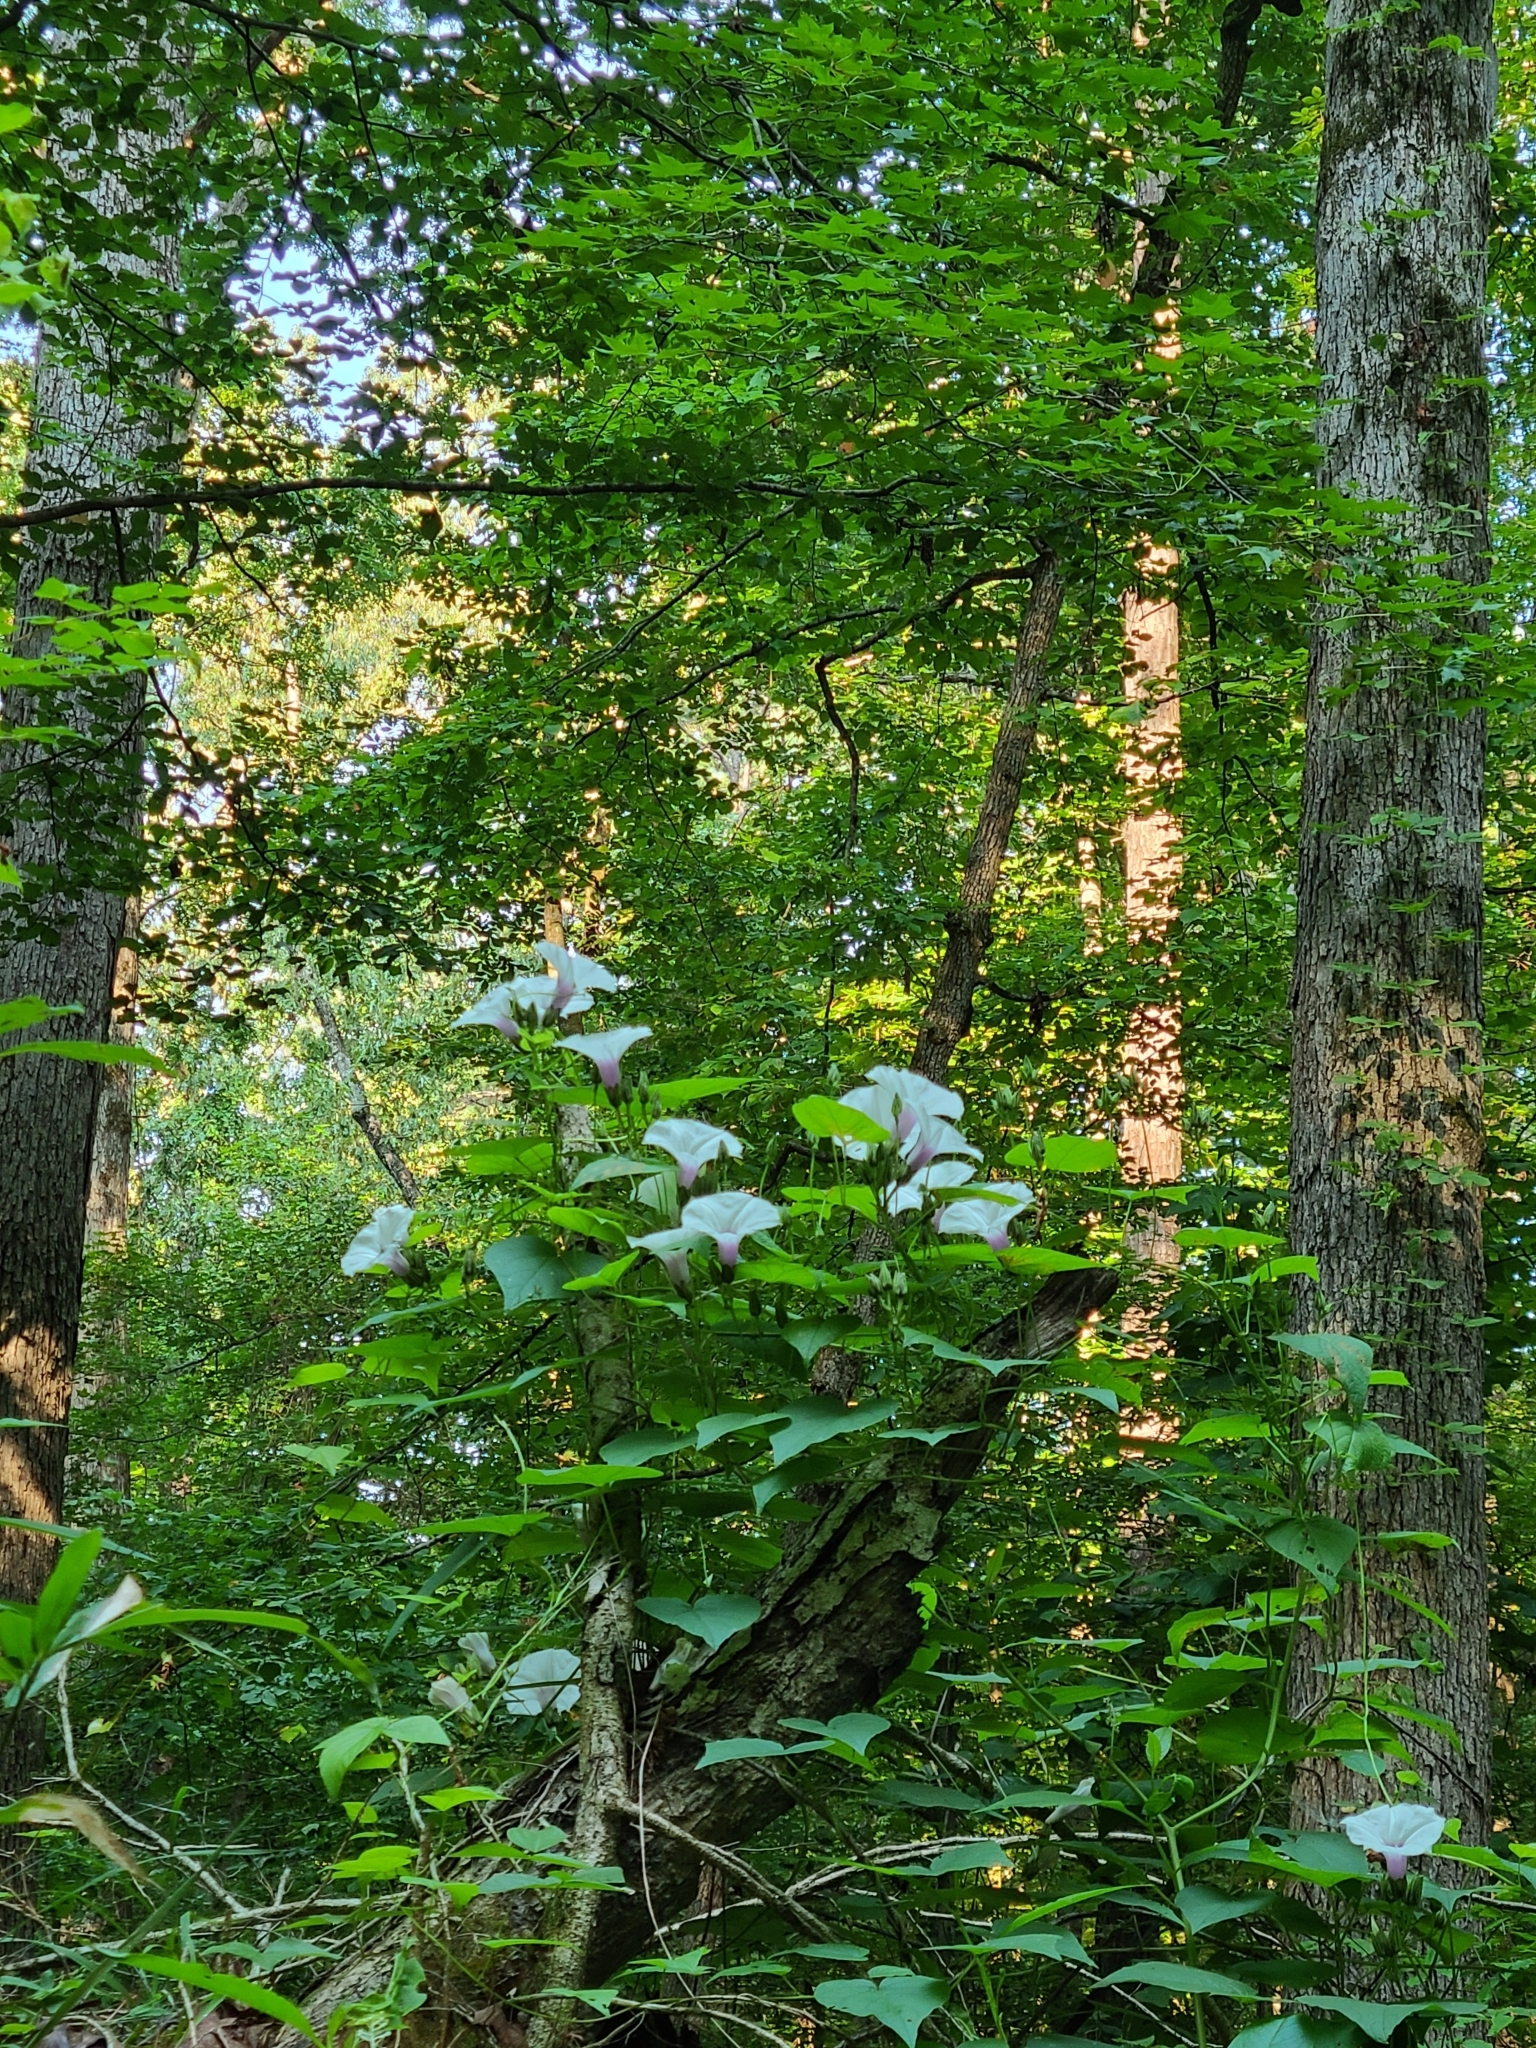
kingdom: Plantae
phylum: Tracheophyta
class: Magnoliopsida
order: Solanales
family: Convolvulaceae
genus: Ipomoea
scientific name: Ipomoea pandurata
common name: Man-of-the-earth
